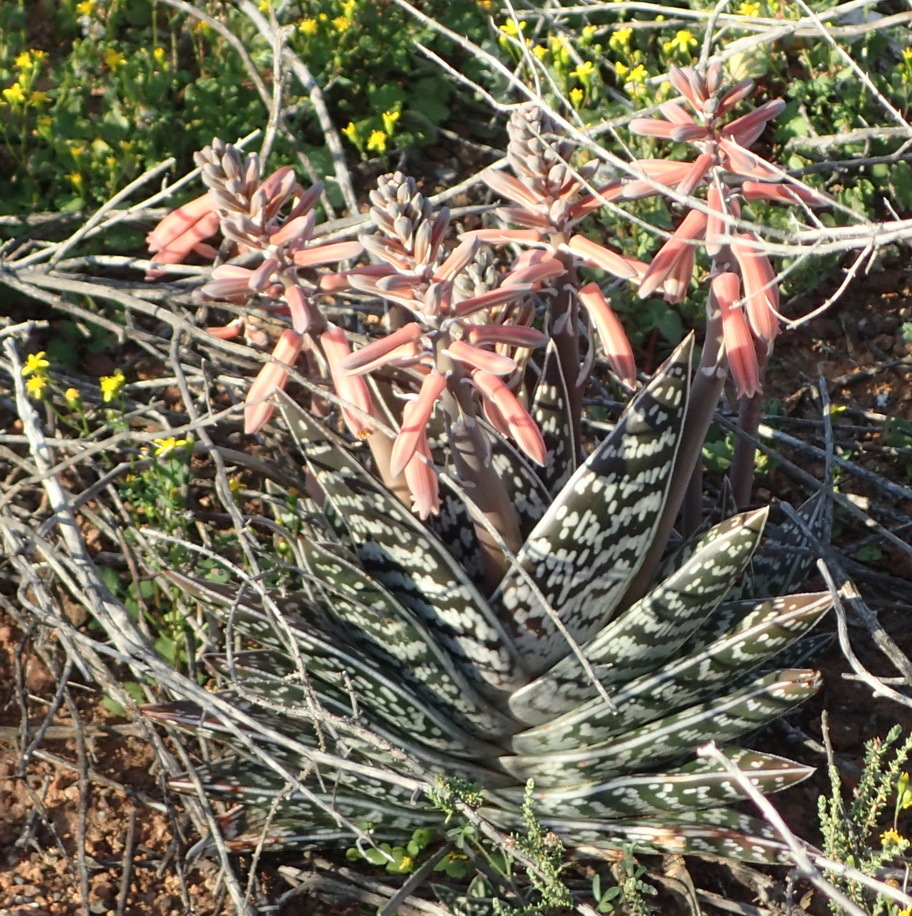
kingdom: Plantae
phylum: Tracheophyta
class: Liliopsida
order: Asparagales
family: Asphodelaceae
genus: Gonialoe
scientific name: Gonialoe variegata
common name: Aloe variegata
